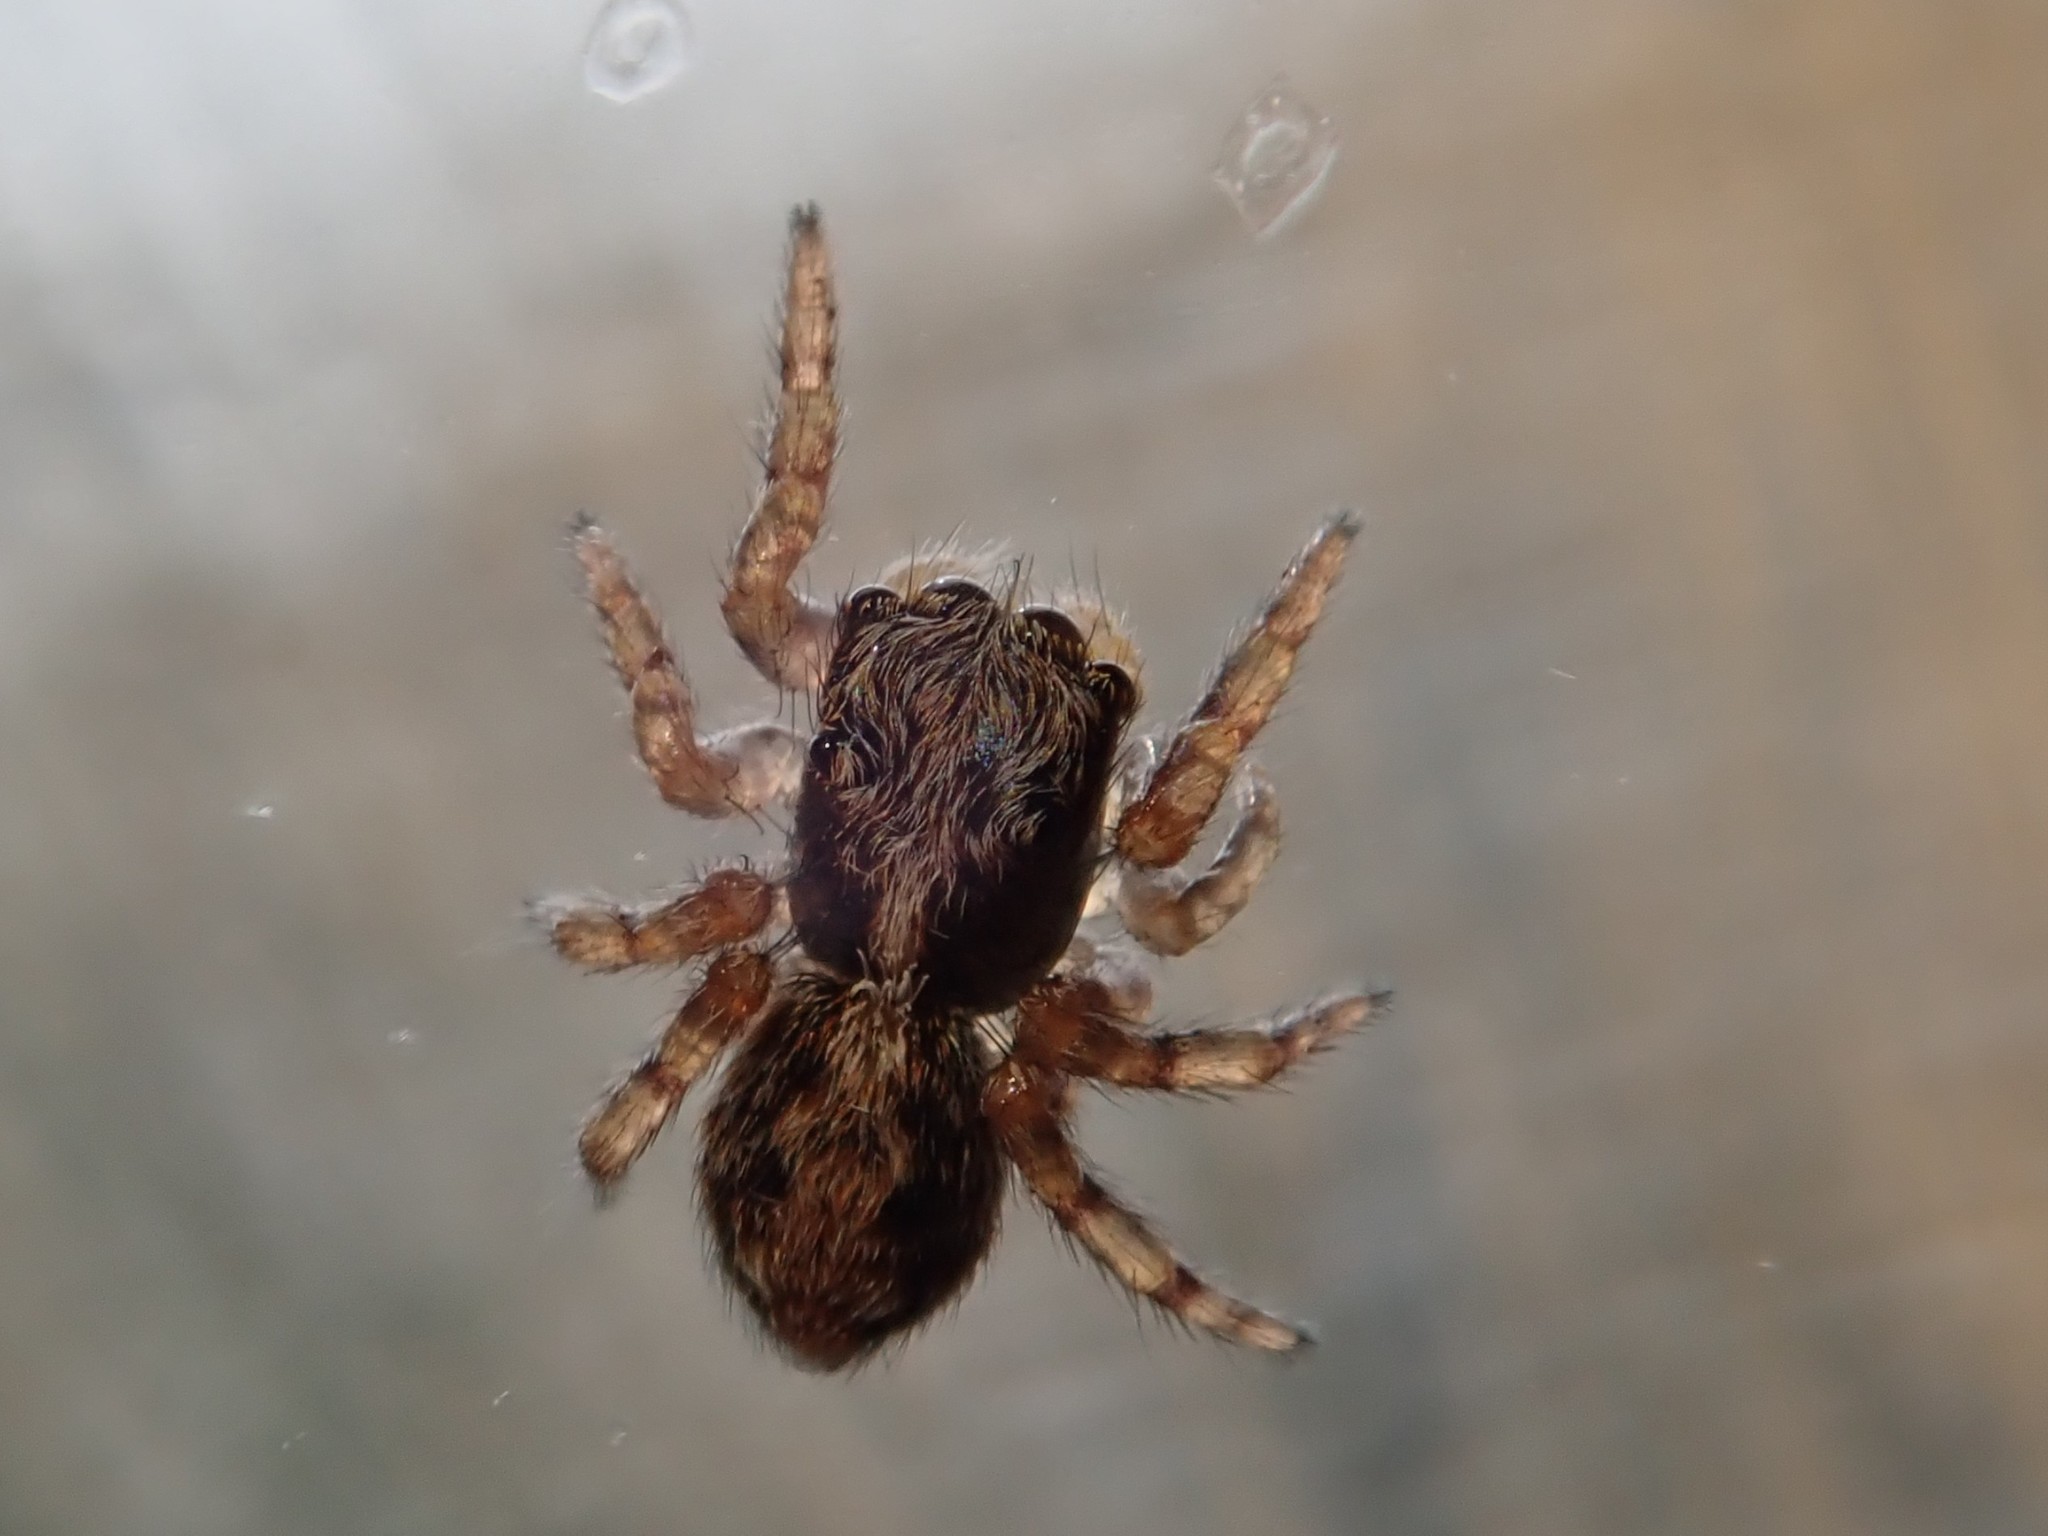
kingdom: Animalia
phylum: Arthropoda
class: Arachnida
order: Araneae
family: Salticidae
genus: Pseudeuophrys
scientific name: Pseudeuophrys lanigera
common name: Jumping spider
